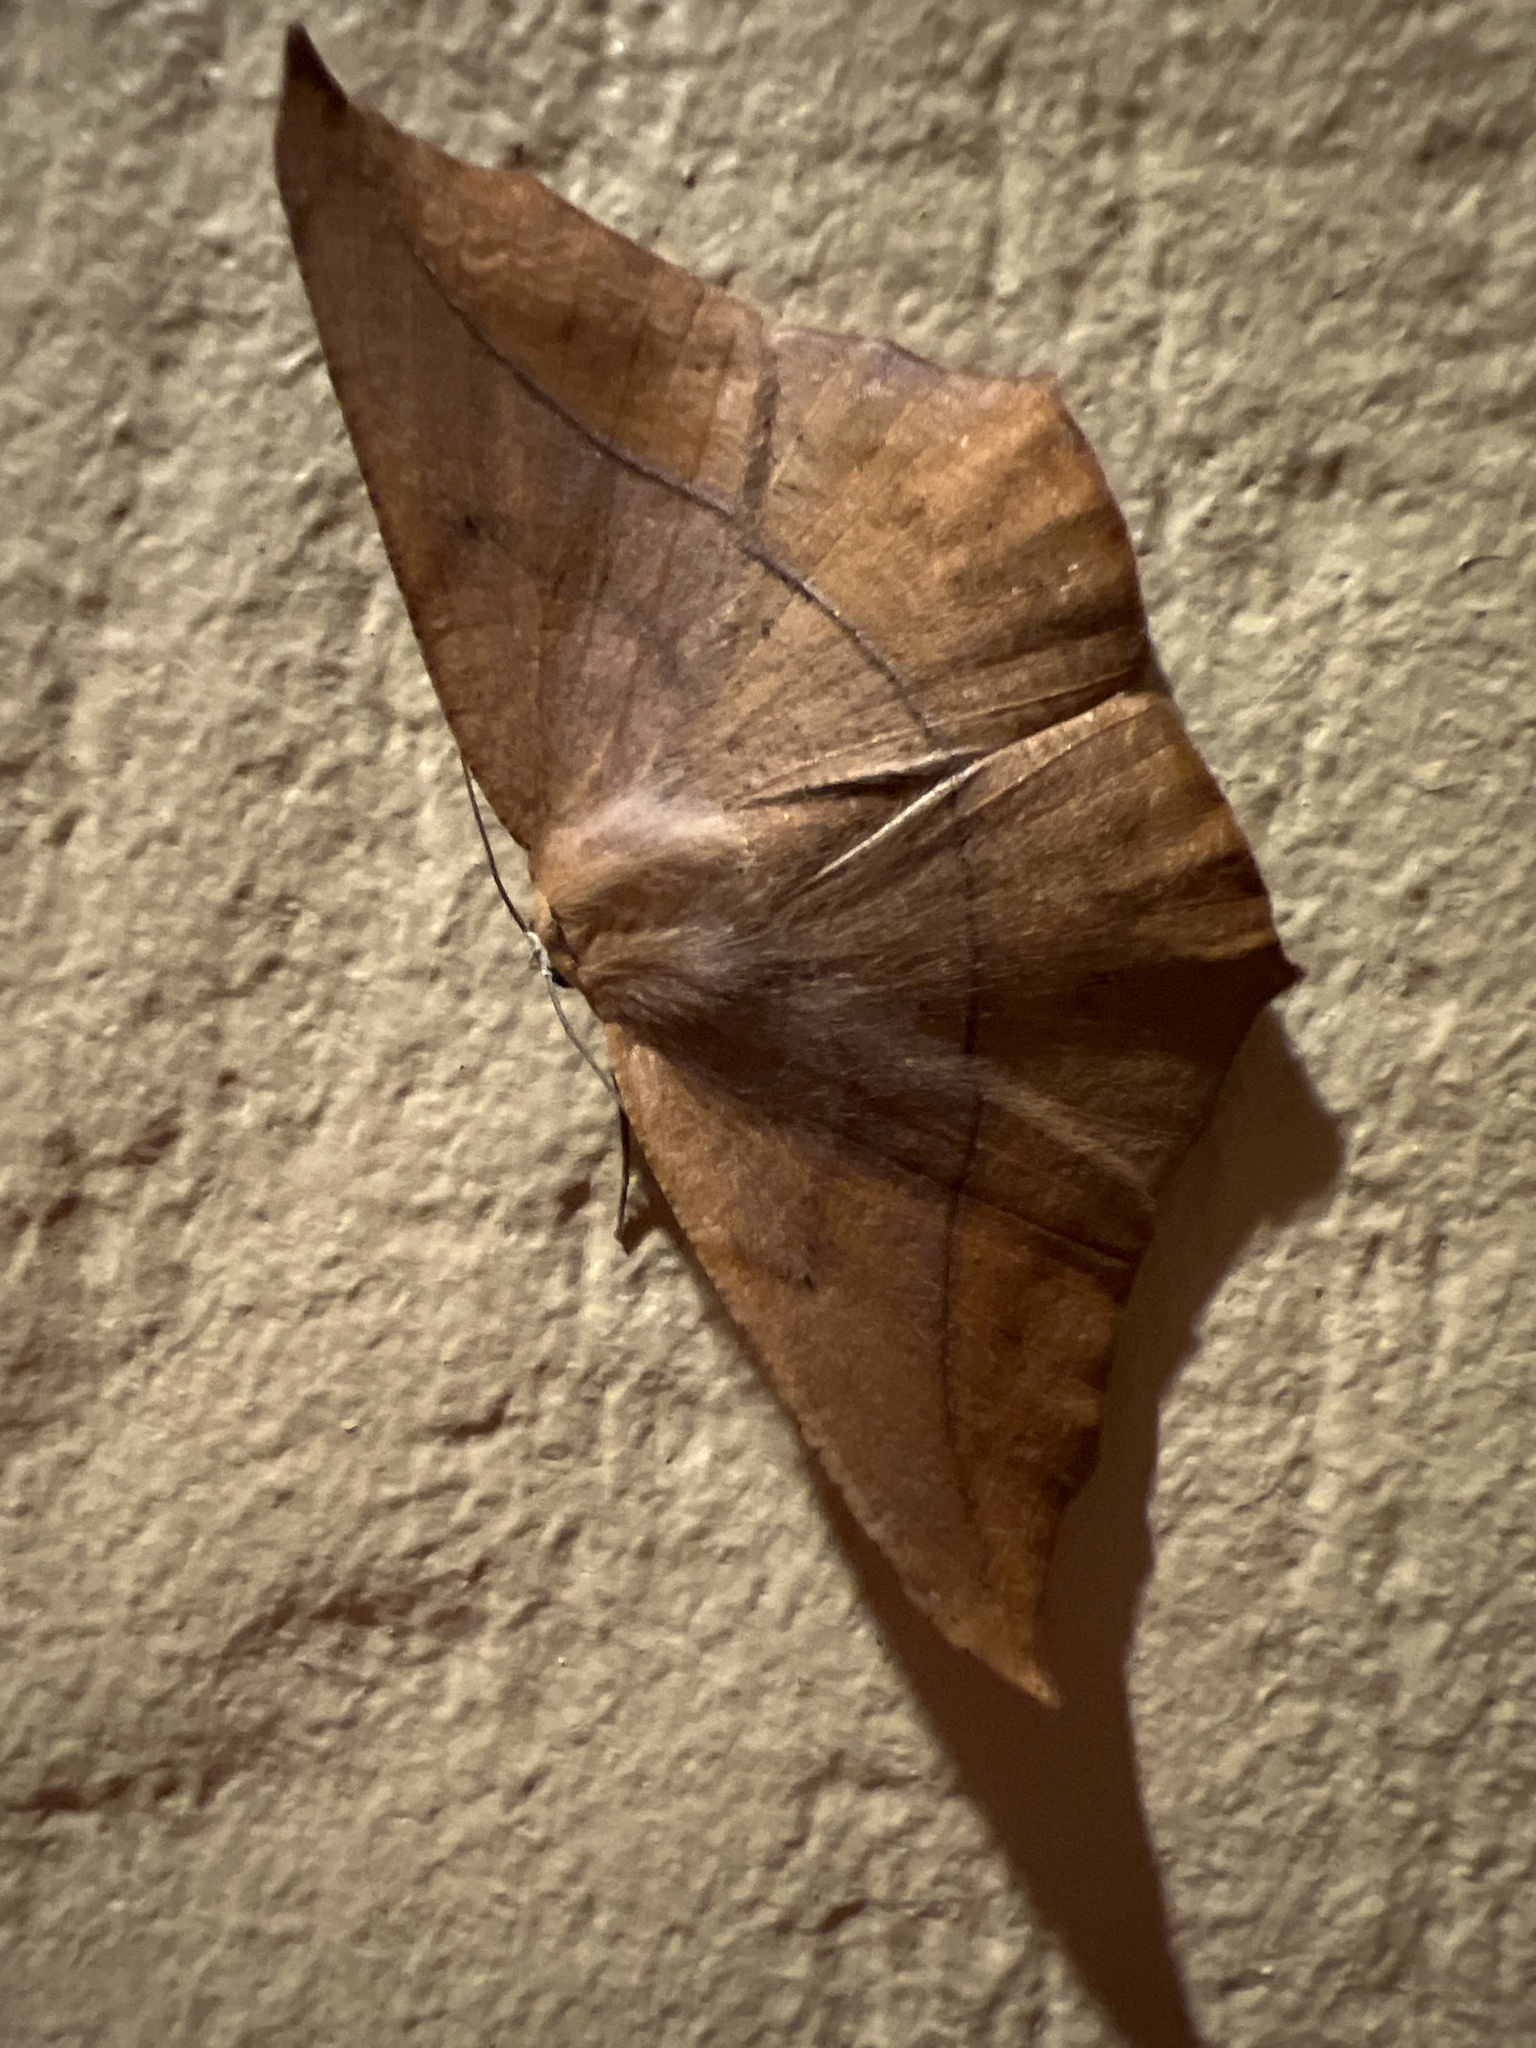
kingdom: Animalia
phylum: Arthropoda
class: Insecta
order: Lepidoptera
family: Geometridae
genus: Prochoerodes
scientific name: Prochoerodes lineola
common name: Large maple spanworm
